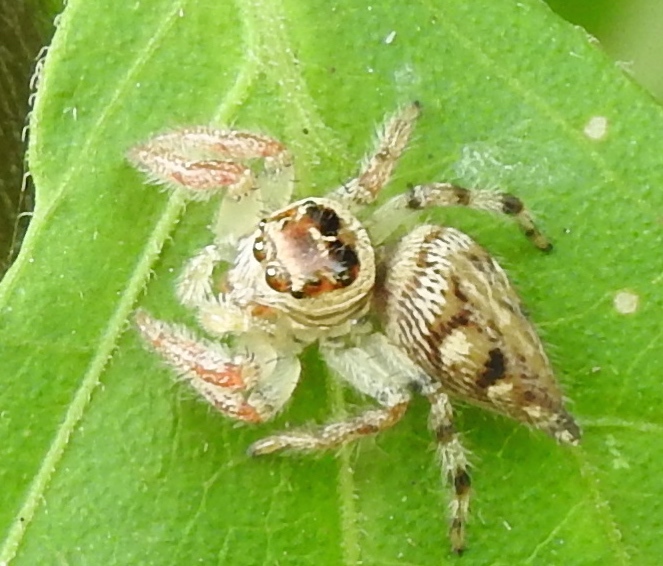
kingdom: Animalia
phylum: Arthropoda
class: Arachnida
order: Araneae
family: Salticidae
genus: Colonus
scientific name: Colonus
